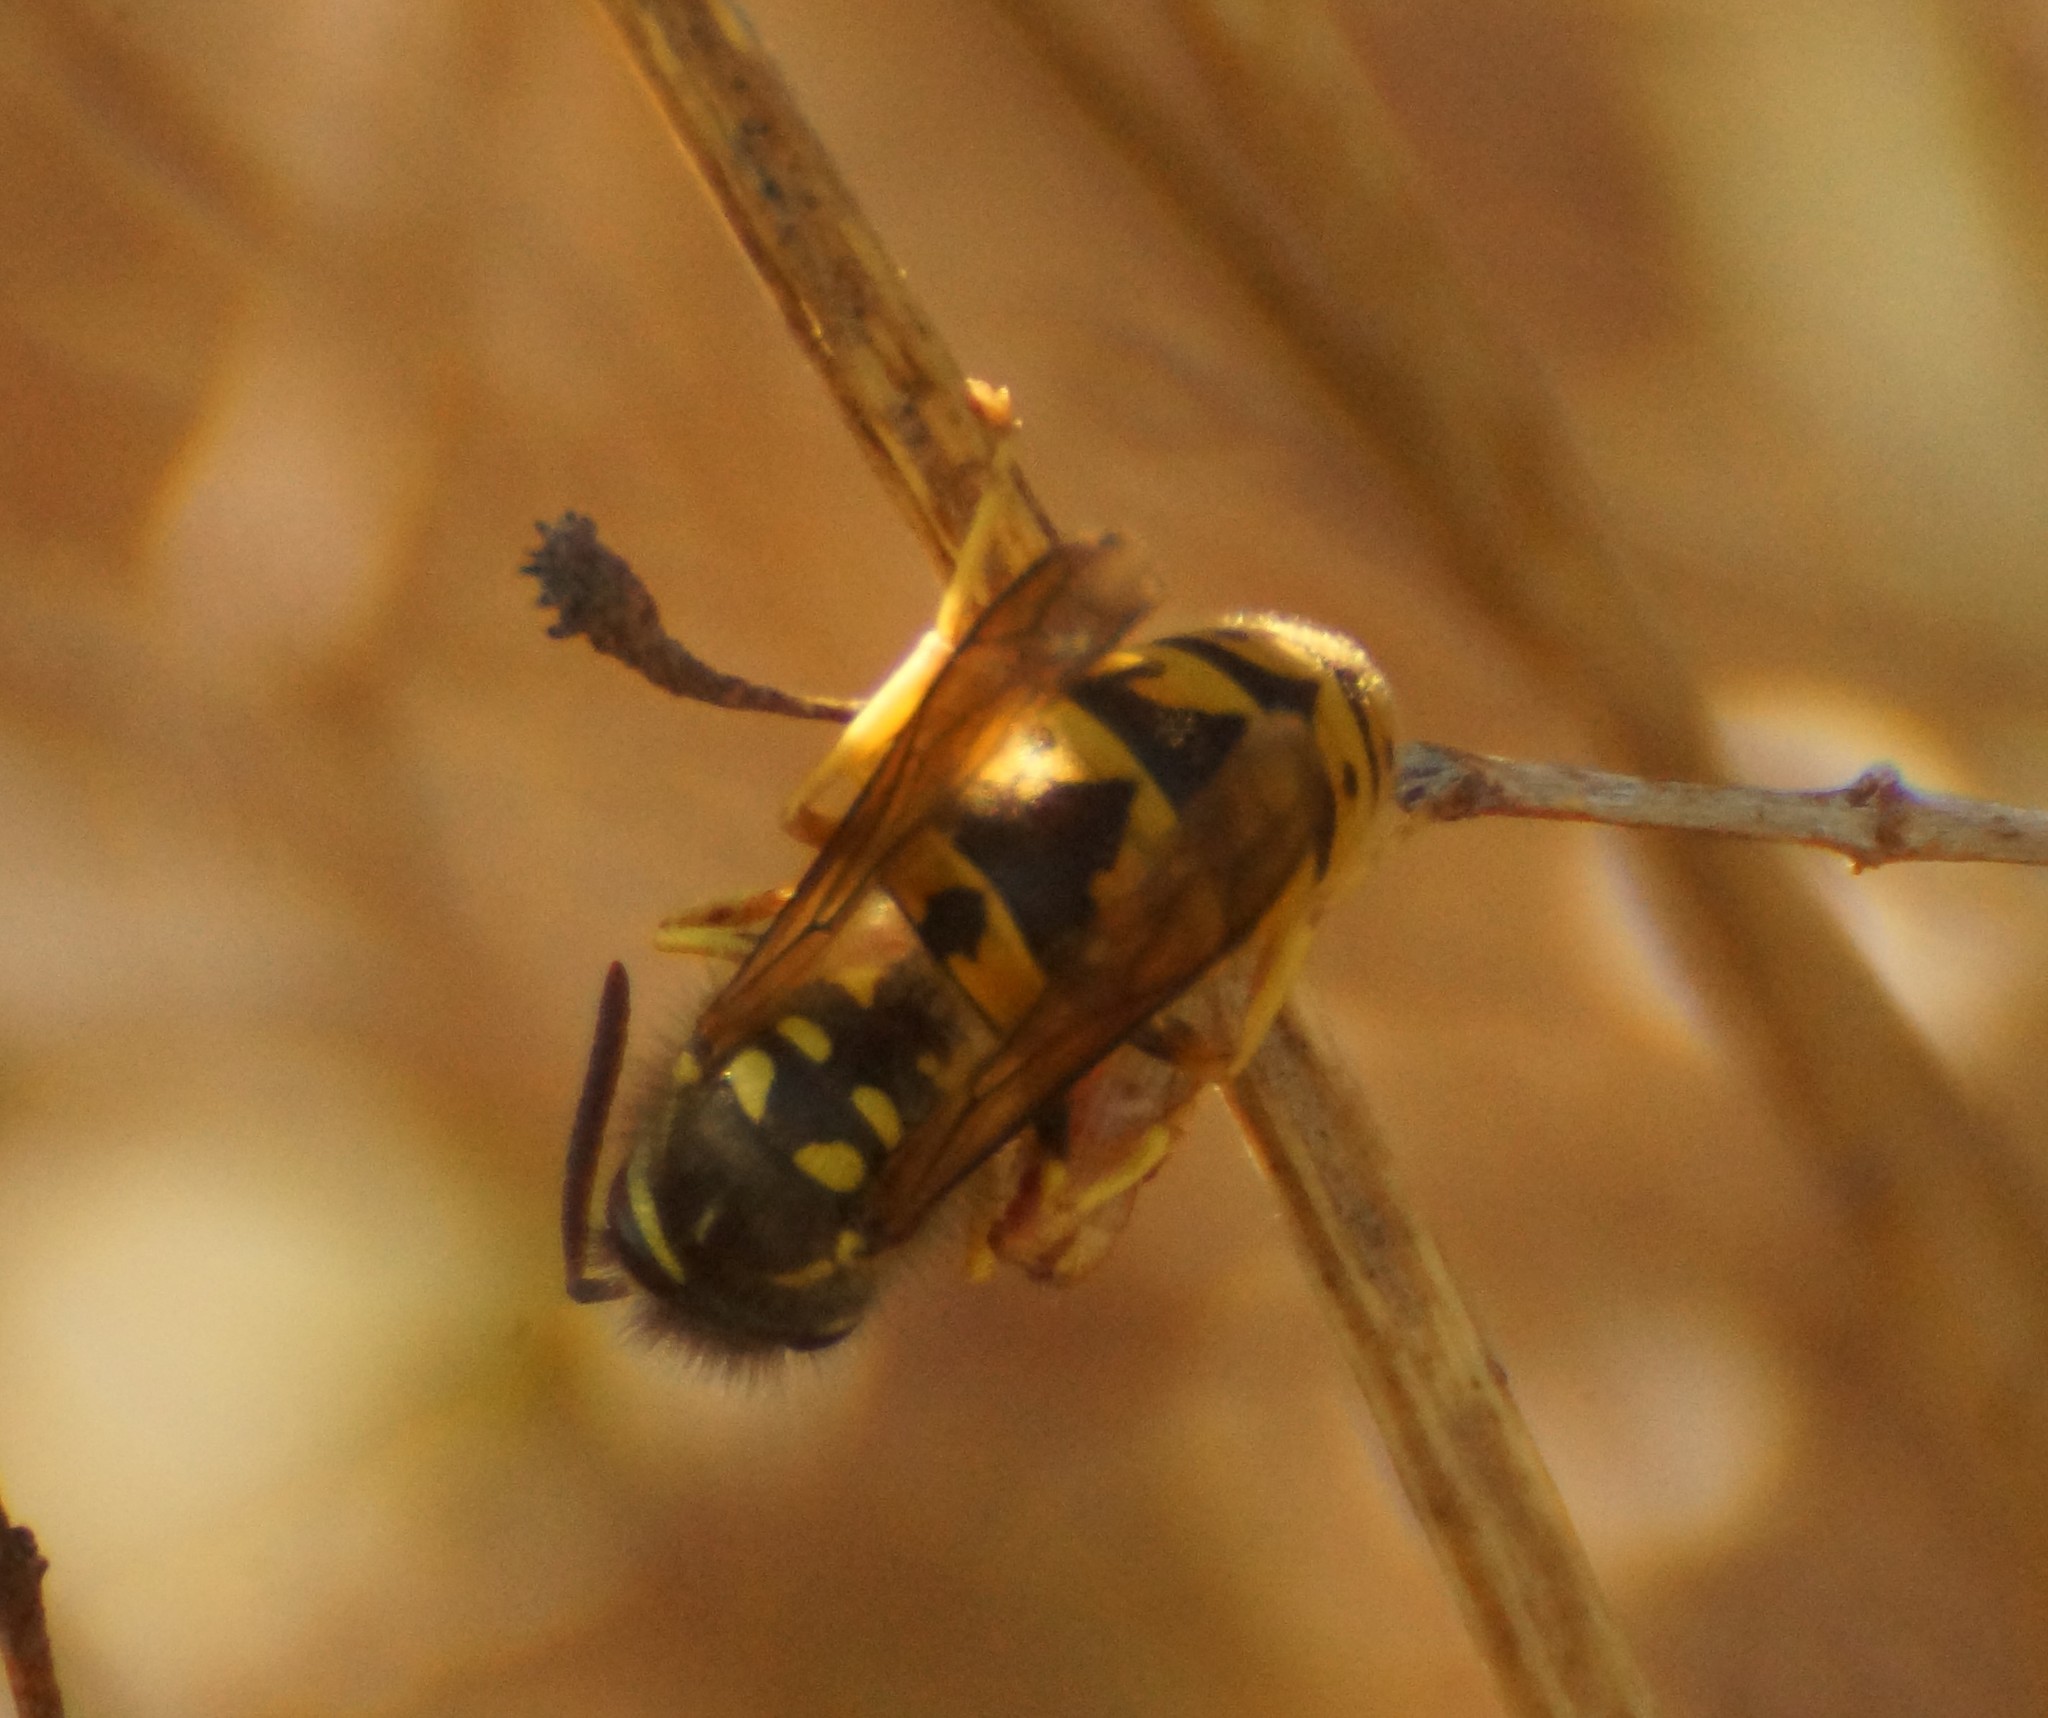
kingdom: Animalia
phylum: Arthropoda
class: Insecta
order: Hymenoptera
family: Vespidae
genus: Vespula
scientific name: Vespula germanica
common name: German wasp
